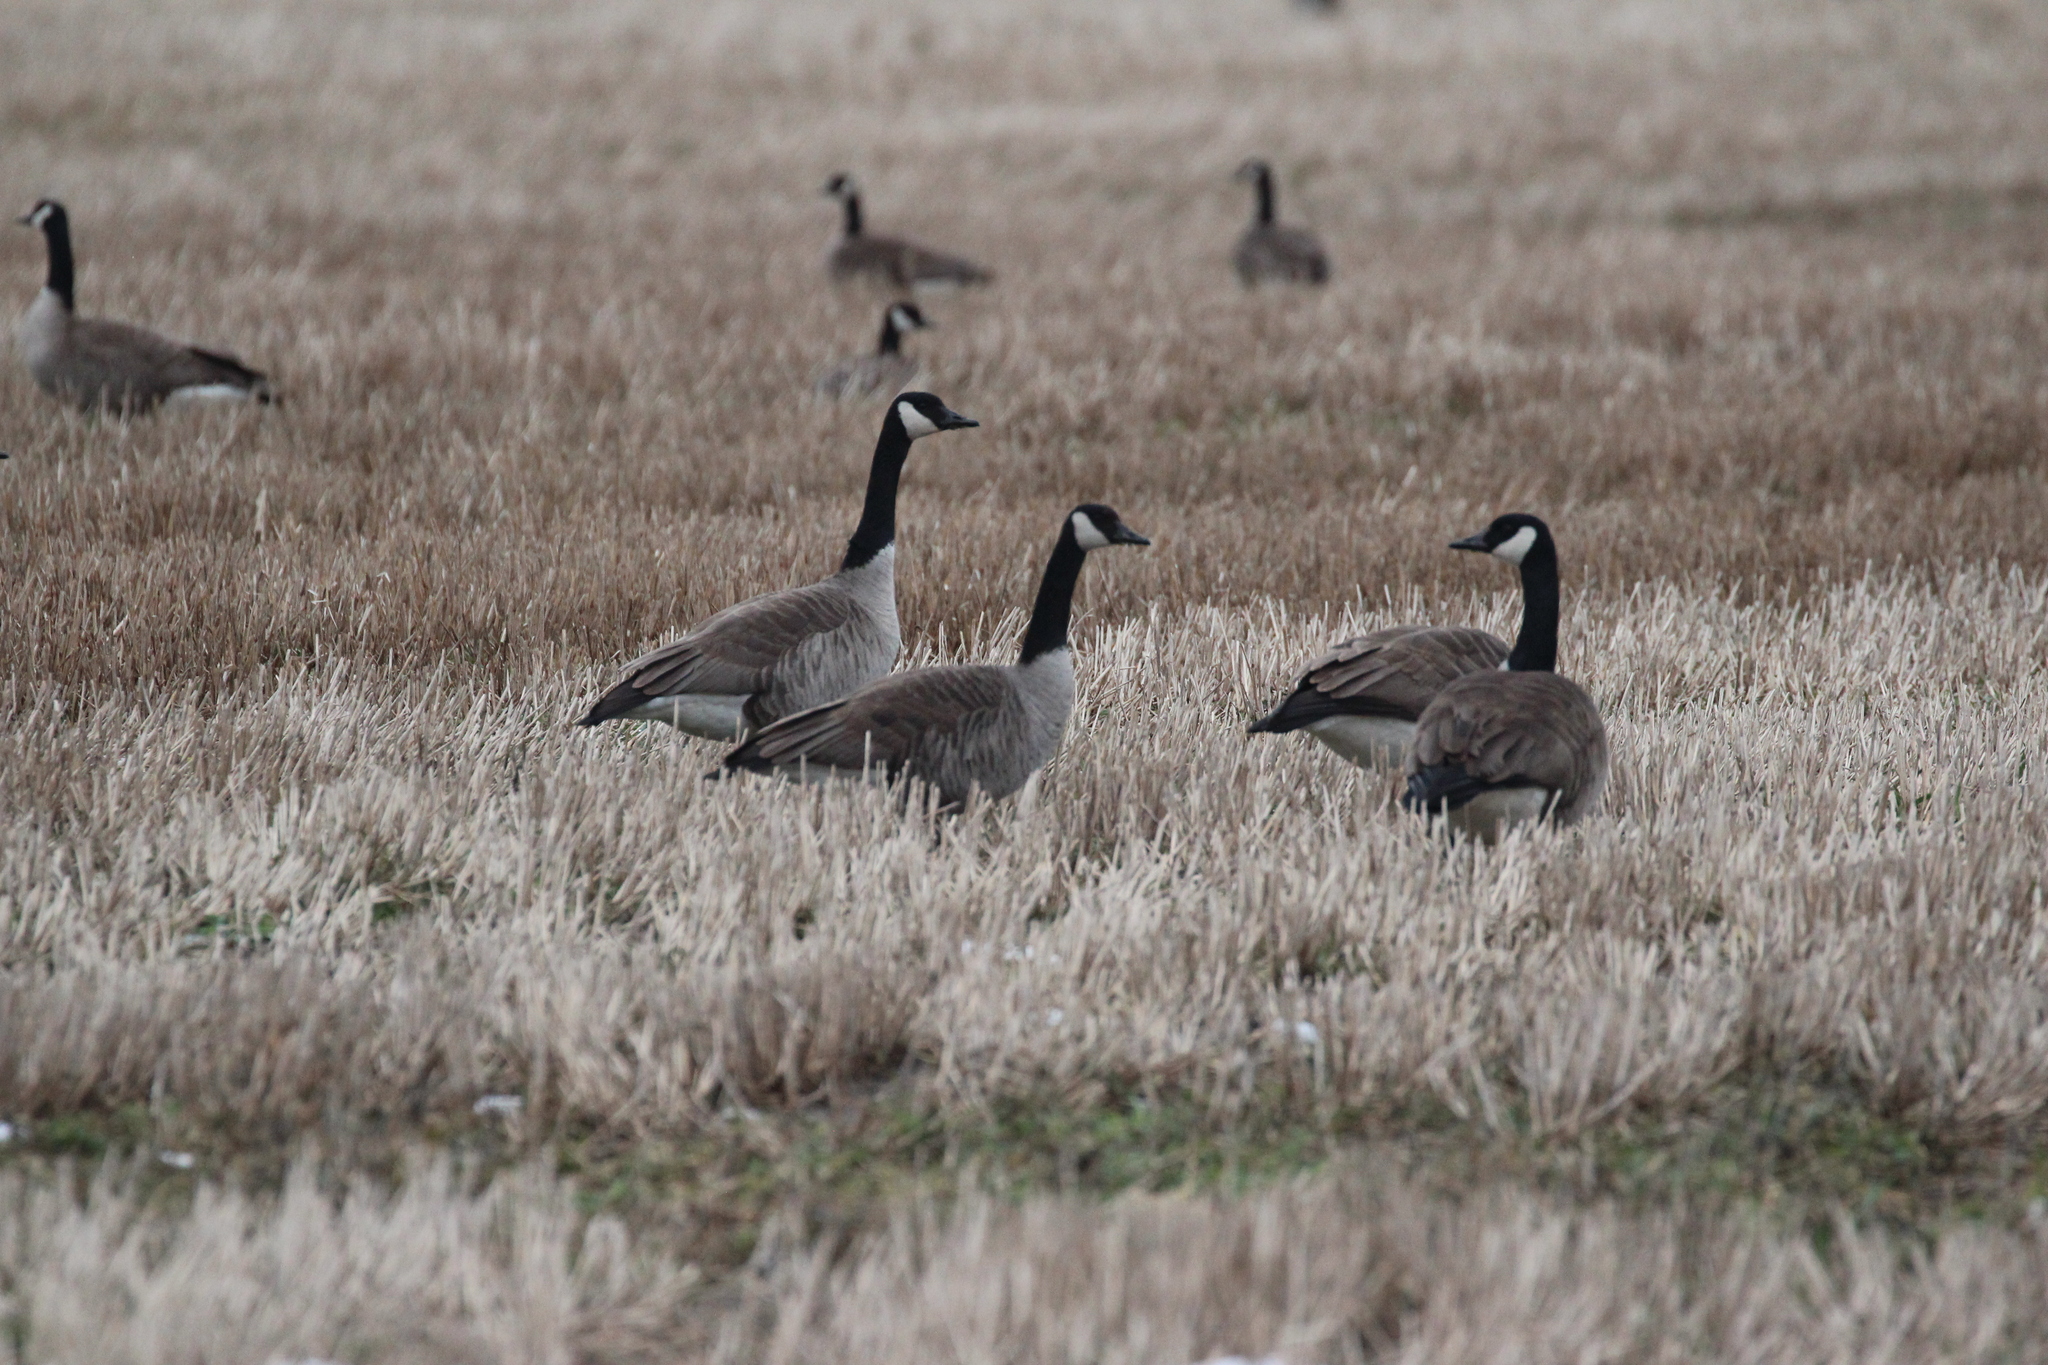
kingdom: Animalia
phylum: Chordata
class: Aves
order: Anseriformes
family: Anatidae
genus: Branta
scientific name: Branta canadensis
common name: Canada goose
